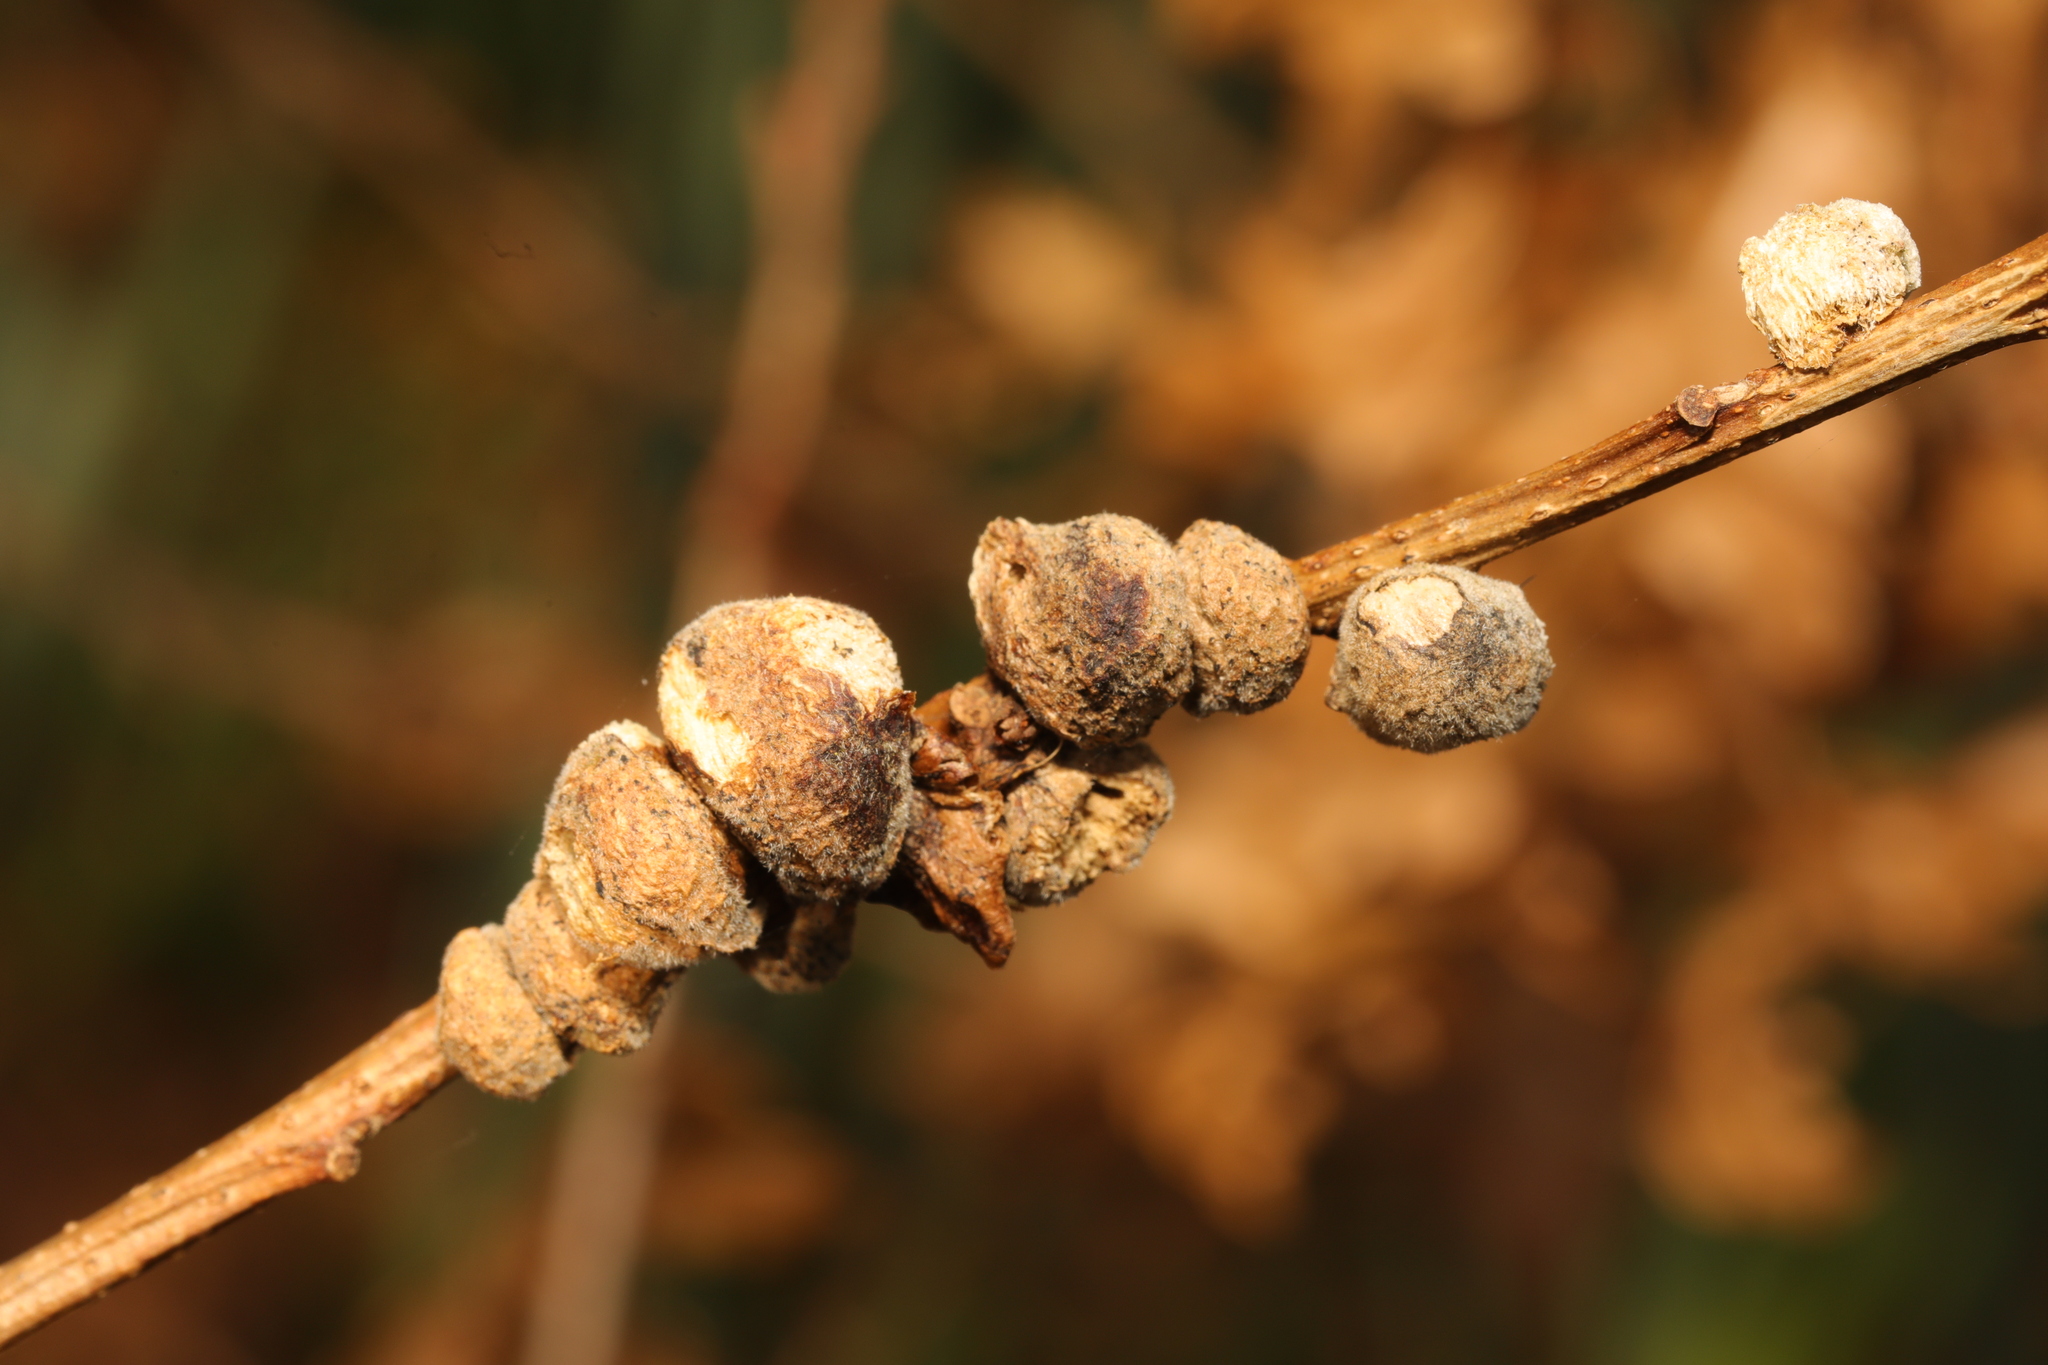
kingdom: Animalia
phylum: Arthropoda
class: Insecta
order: Hymenoptera
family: Cynipidae
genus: Aphelonyx
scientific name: Aphelonyx cerricola
